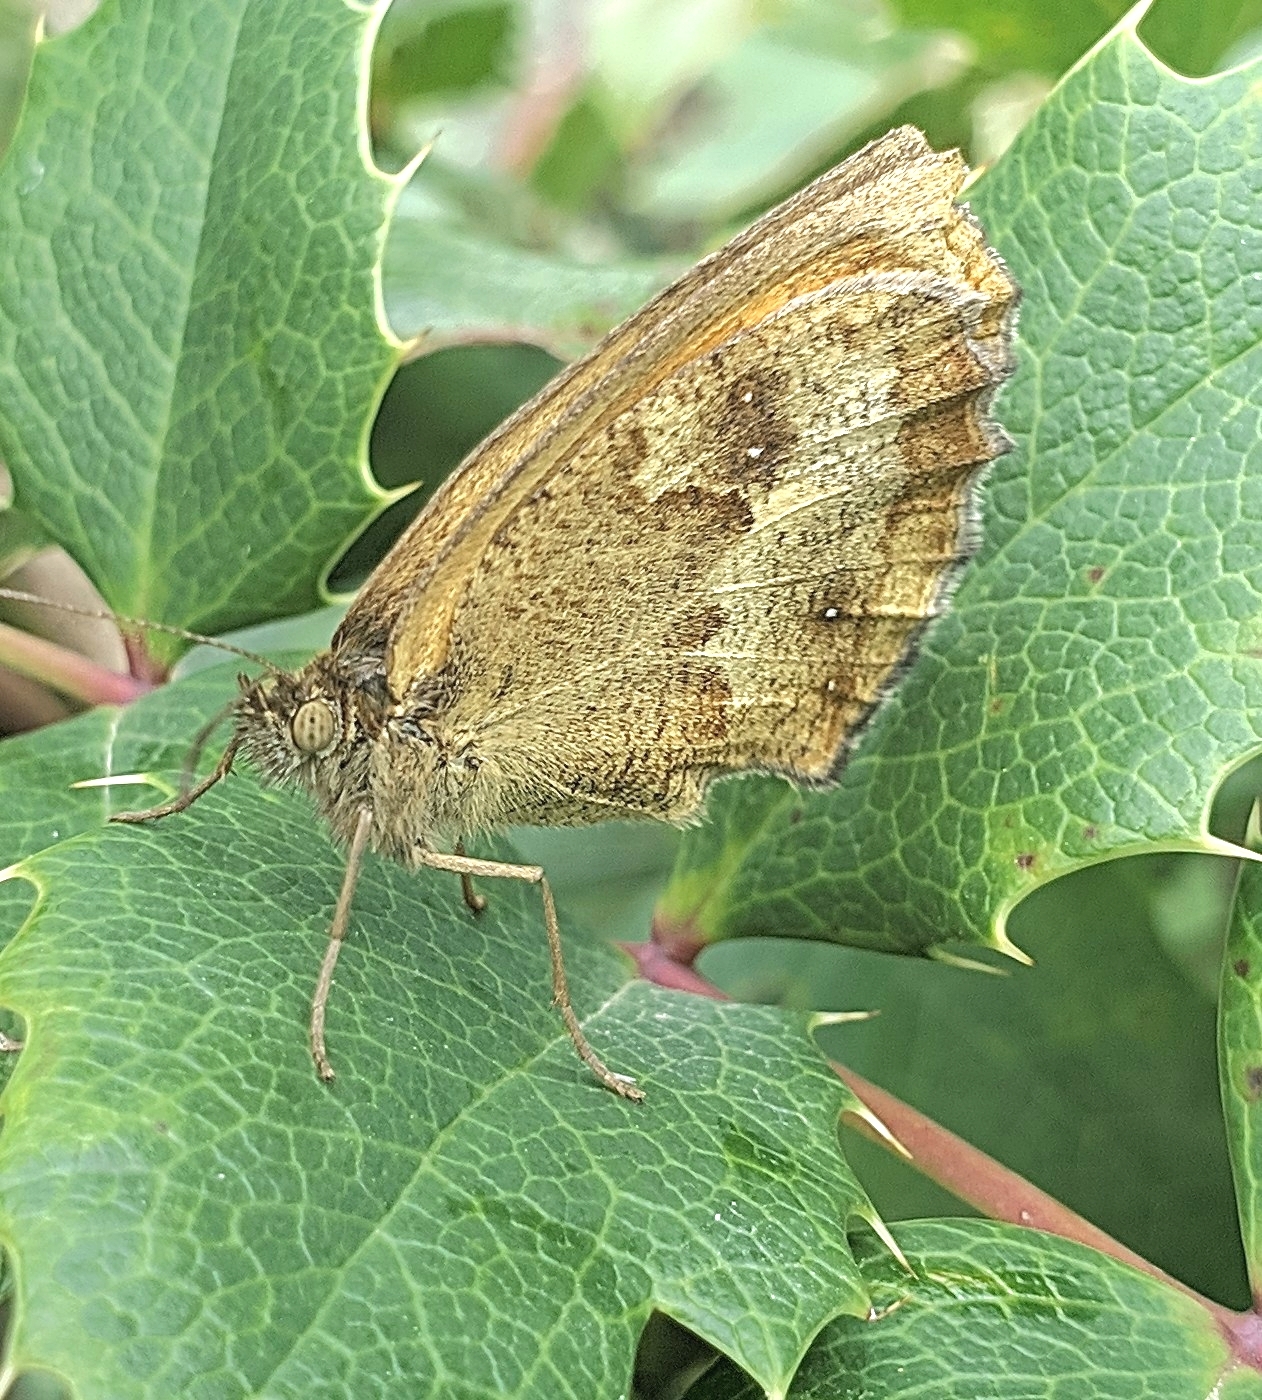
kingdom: Animalia
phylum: Arthropoda
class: Insecta
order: Lepidoptera
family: Nymphalidae
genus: Pyronia
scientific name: Pyronia tithonus
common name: Gatekeeper
